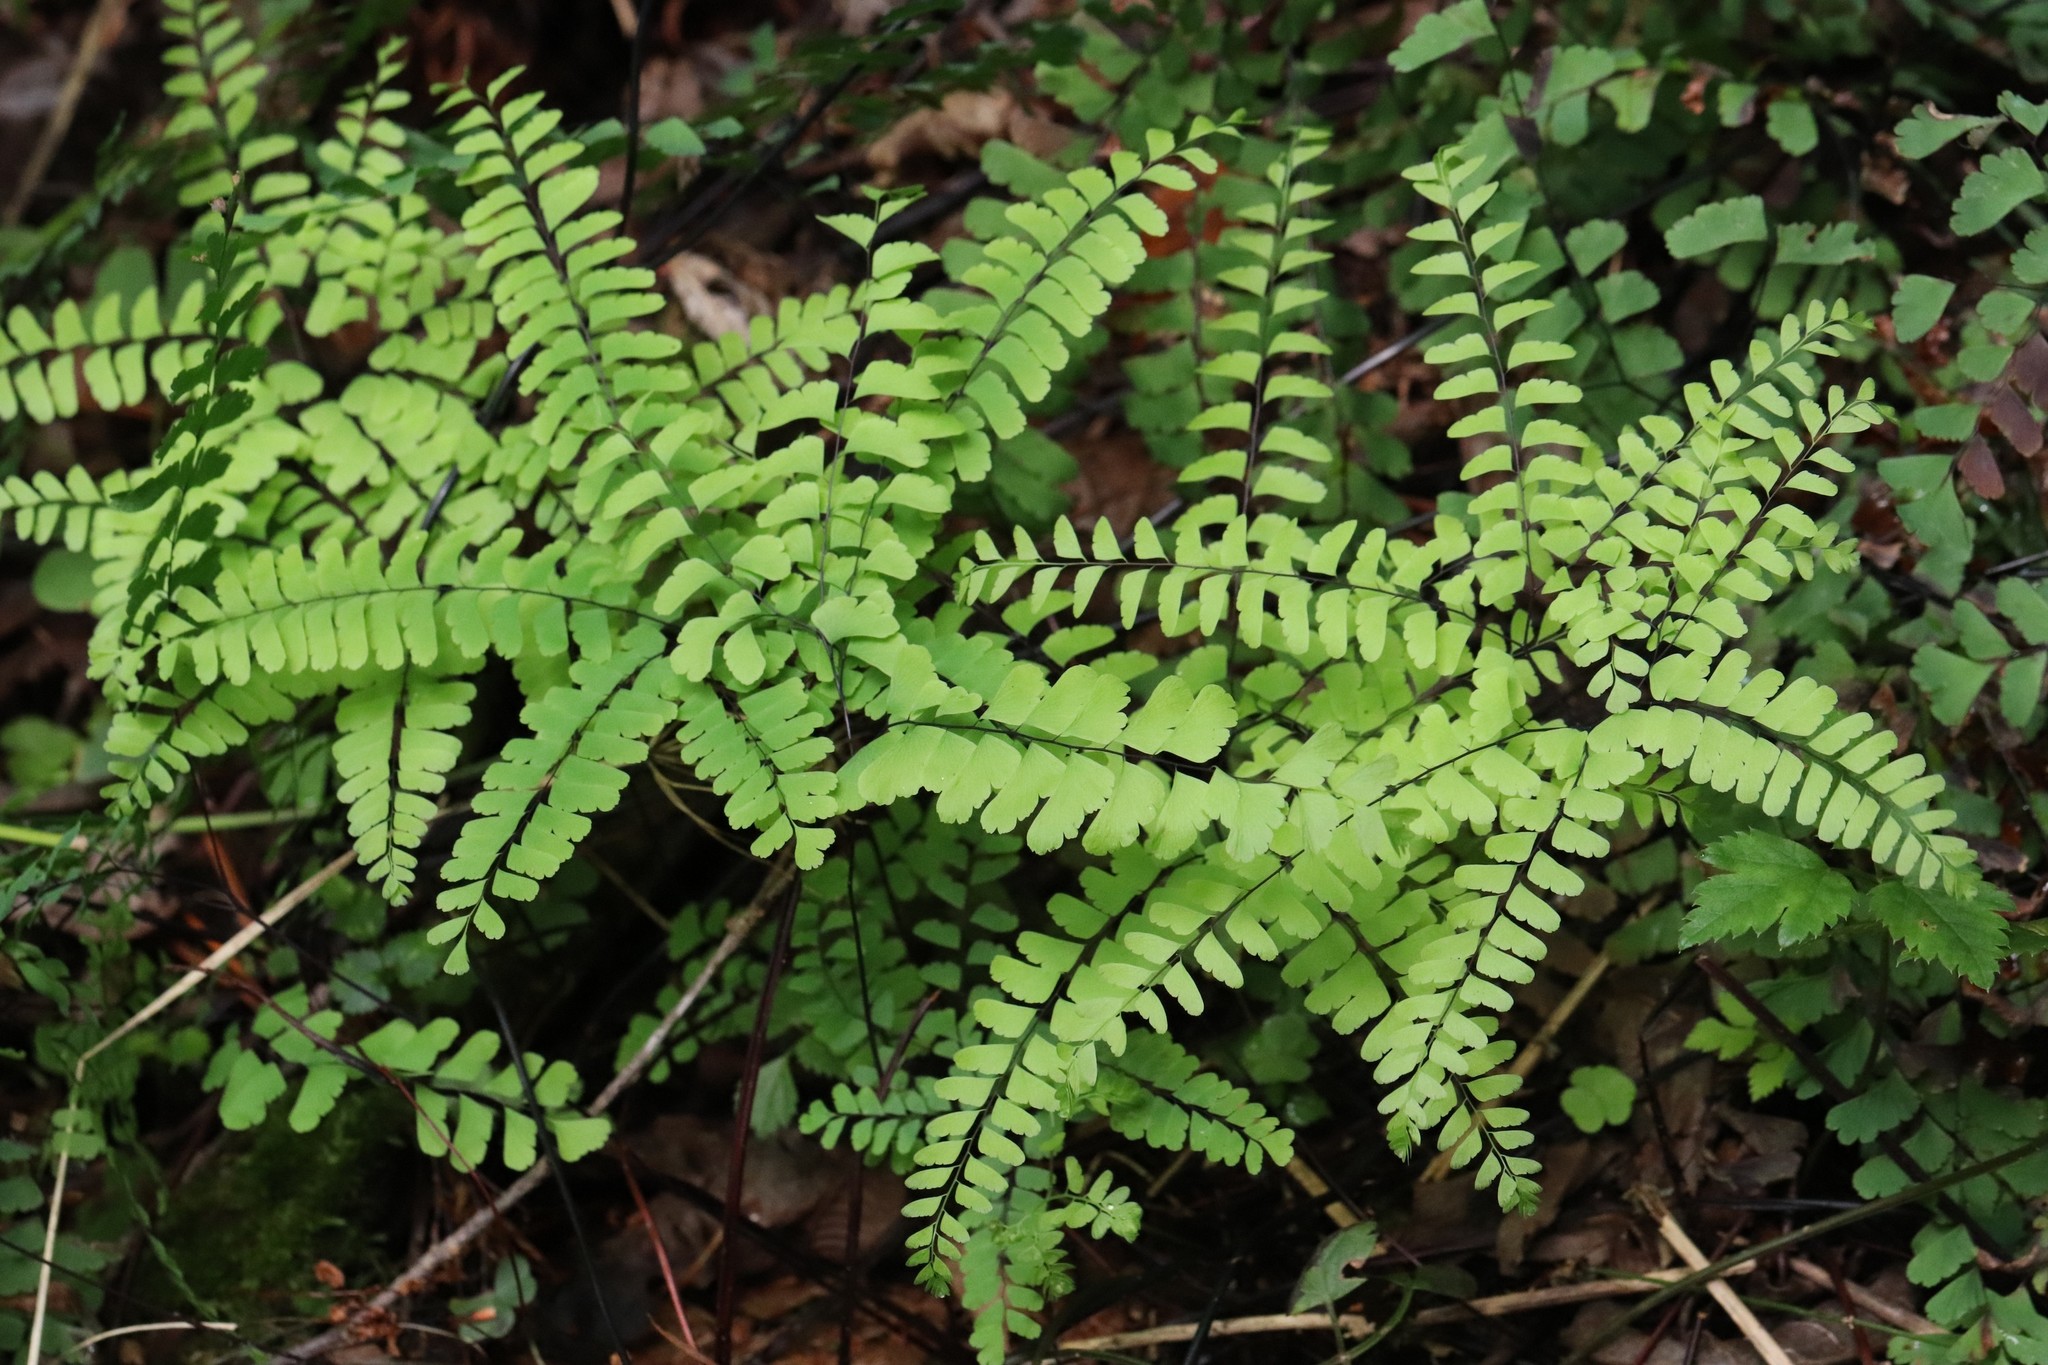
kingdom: Plantae
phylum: Tracheophyta
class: Polypodiopsida
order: Polypodiales
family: Pteridaceae
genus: Adiantum
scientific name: Adiantum pedatum
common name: Five-finger fern
